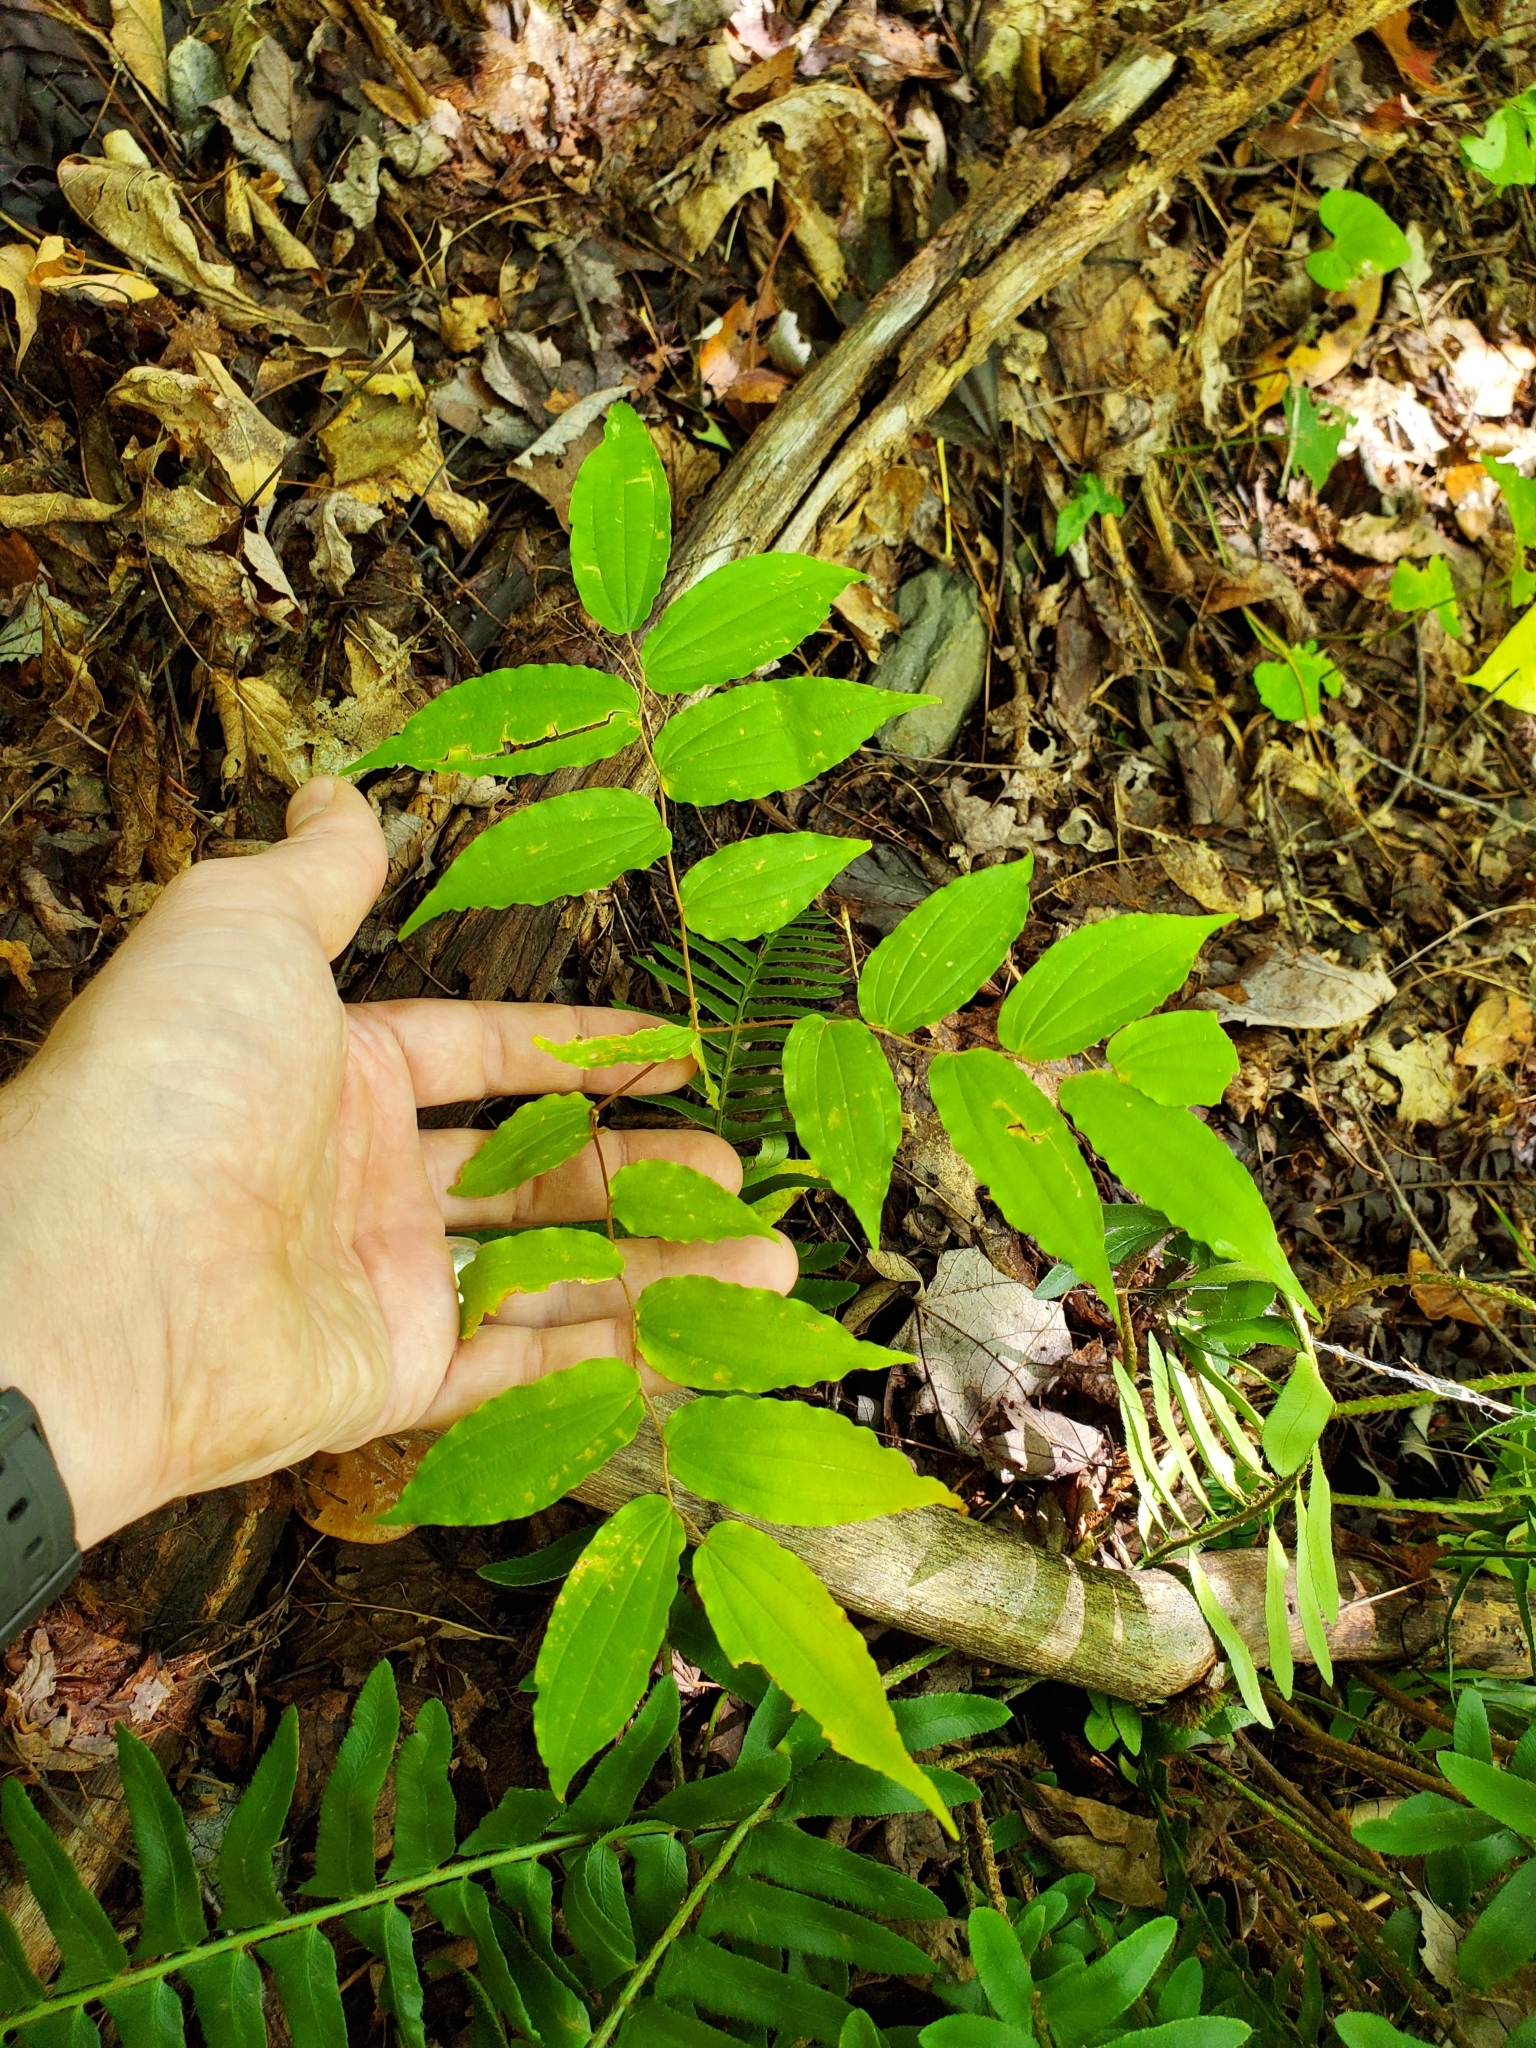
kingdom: Plantae
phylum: Tracheophyta
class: Liliopsida
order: Liliales
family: Liliaceae
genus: Prosartes
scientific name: Prosartes lanuginosa
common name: Hairy mandarin
